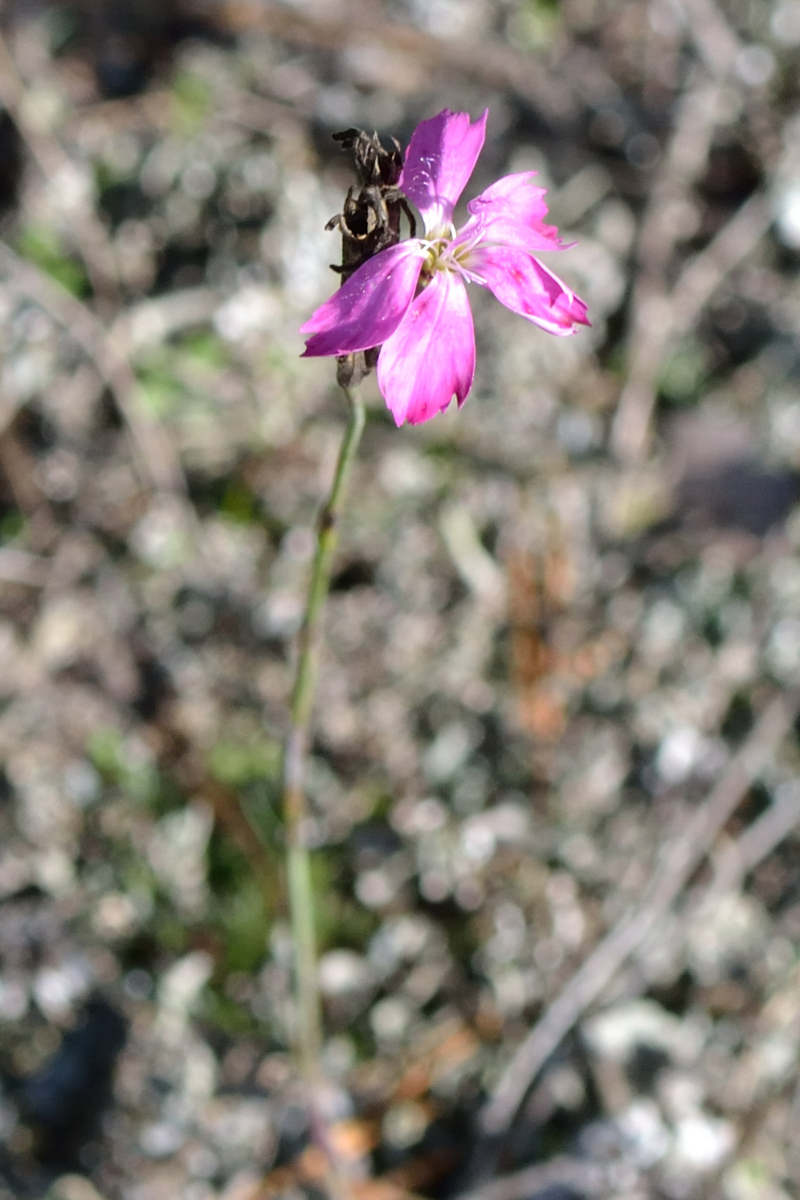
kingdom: Plantae
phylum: Tracheophyta
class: Magnoliopsida
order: Caryophyllales
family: Caryophyllaceae
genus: Dianthus
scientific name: Dianthus borbasii
